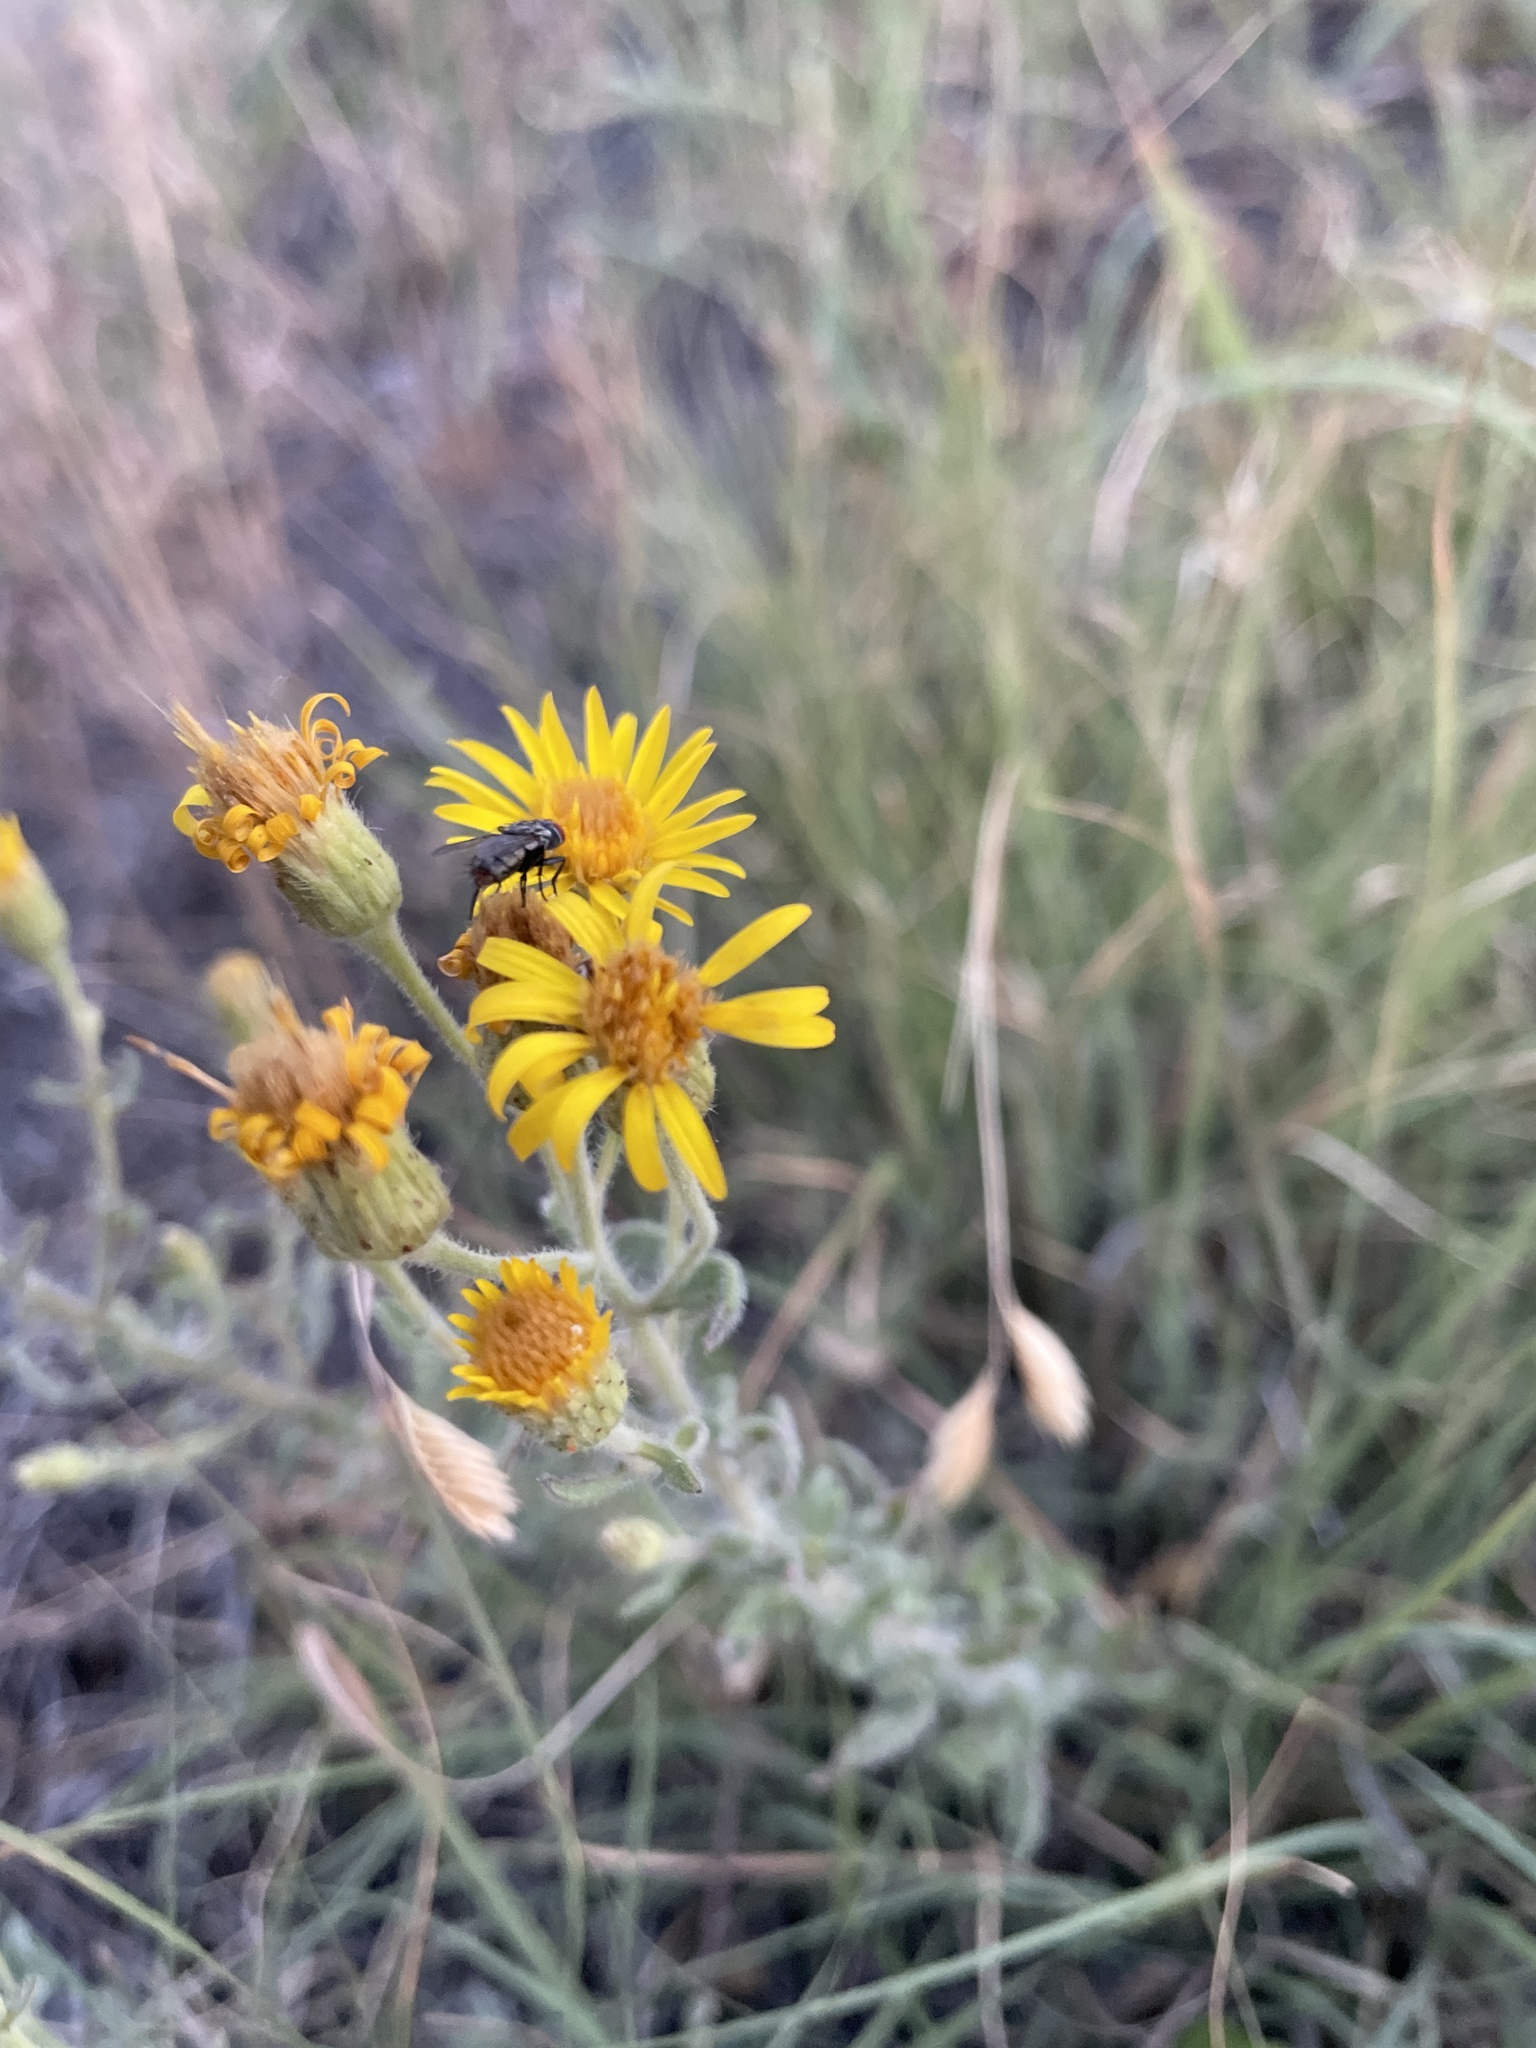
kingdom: Plantae
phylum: Tracheophyta
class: Magnoliopsida
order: Asterales
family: Asteraceae
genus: Heterotheca
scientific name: Heterotheca hirsutissima
